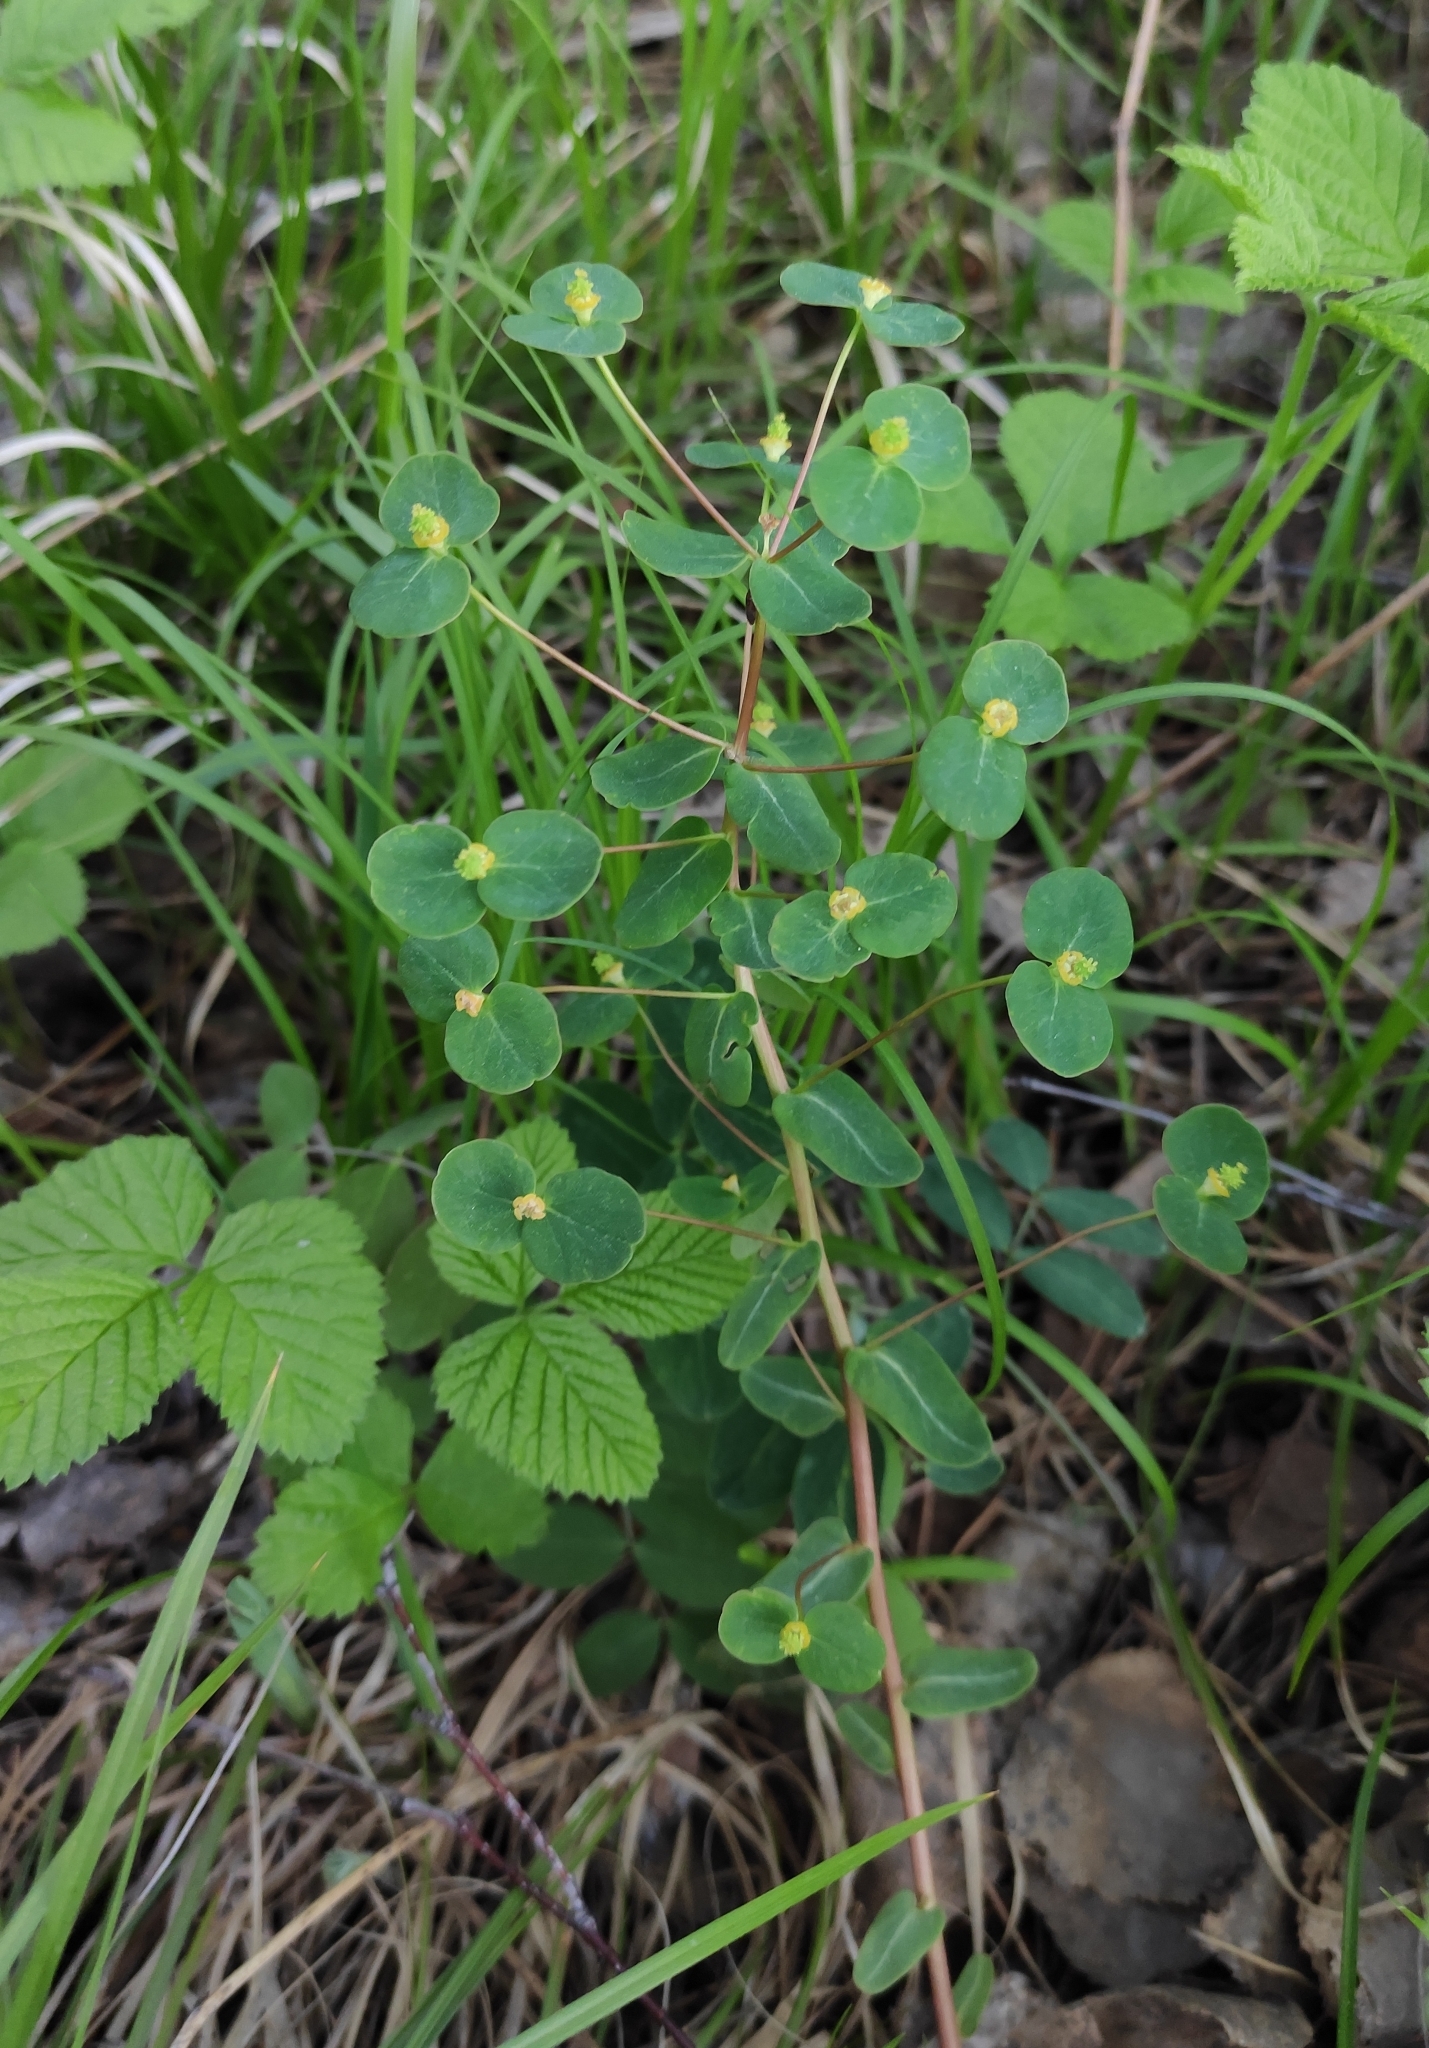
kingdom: Plantae
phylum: Tracheophyta
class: Magnoliopsida
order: Malpighiales
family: Euphorbiaceae
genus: Euphorbia
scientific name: Euphorbia jenisseiensis
